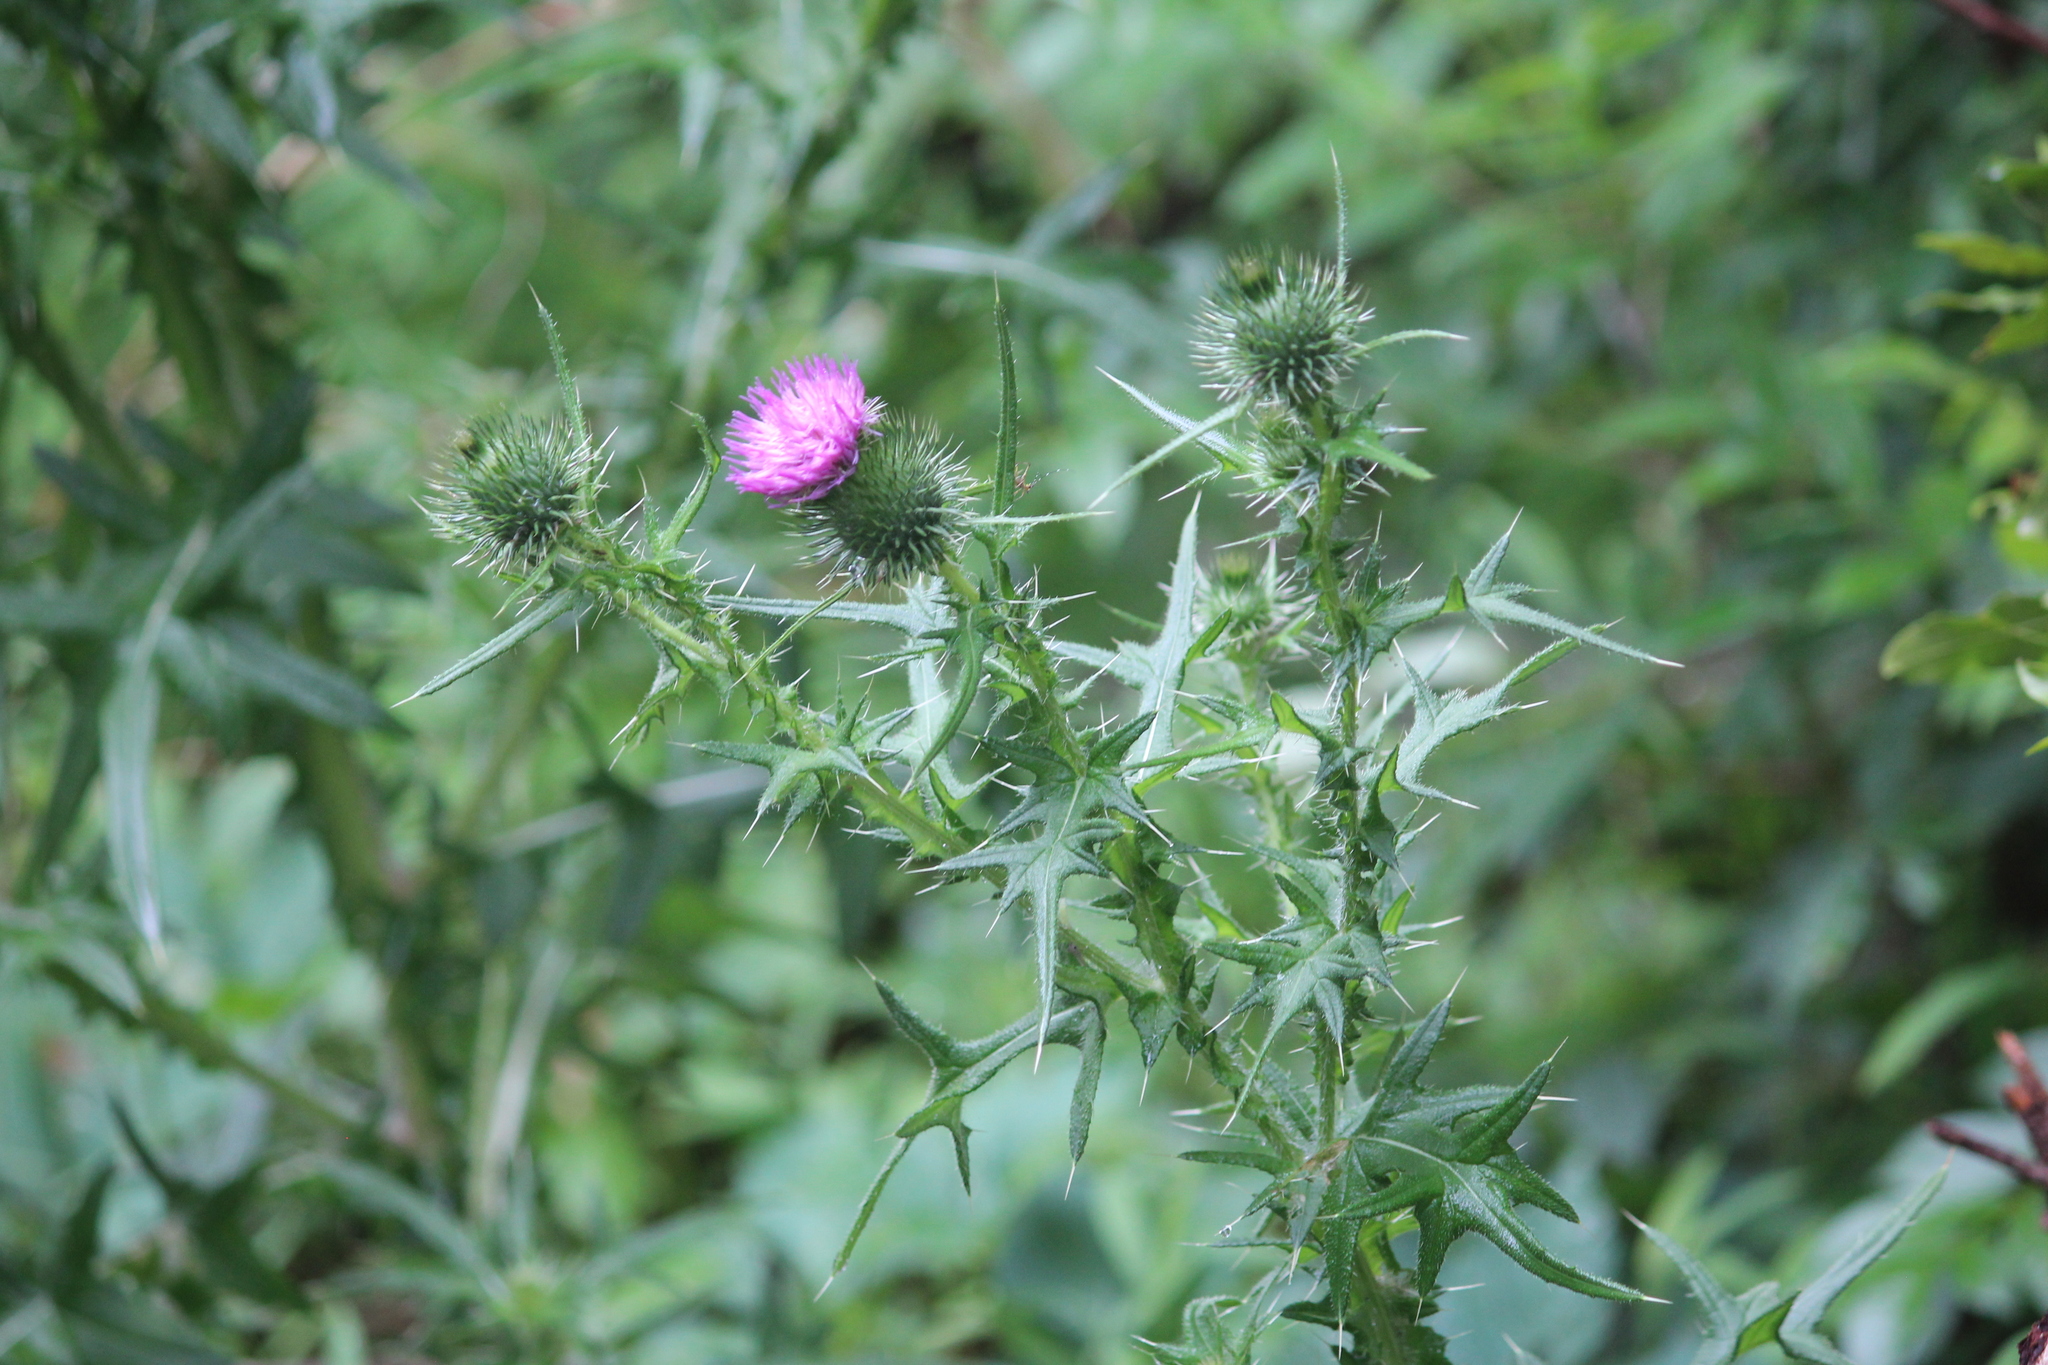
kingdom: Plantae
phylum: Tracheophyta
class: Magnoliopsida
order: Asterales
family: Asteraceae
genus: Cirsium
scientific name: Cirsium vulgare
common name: Bull thistle
